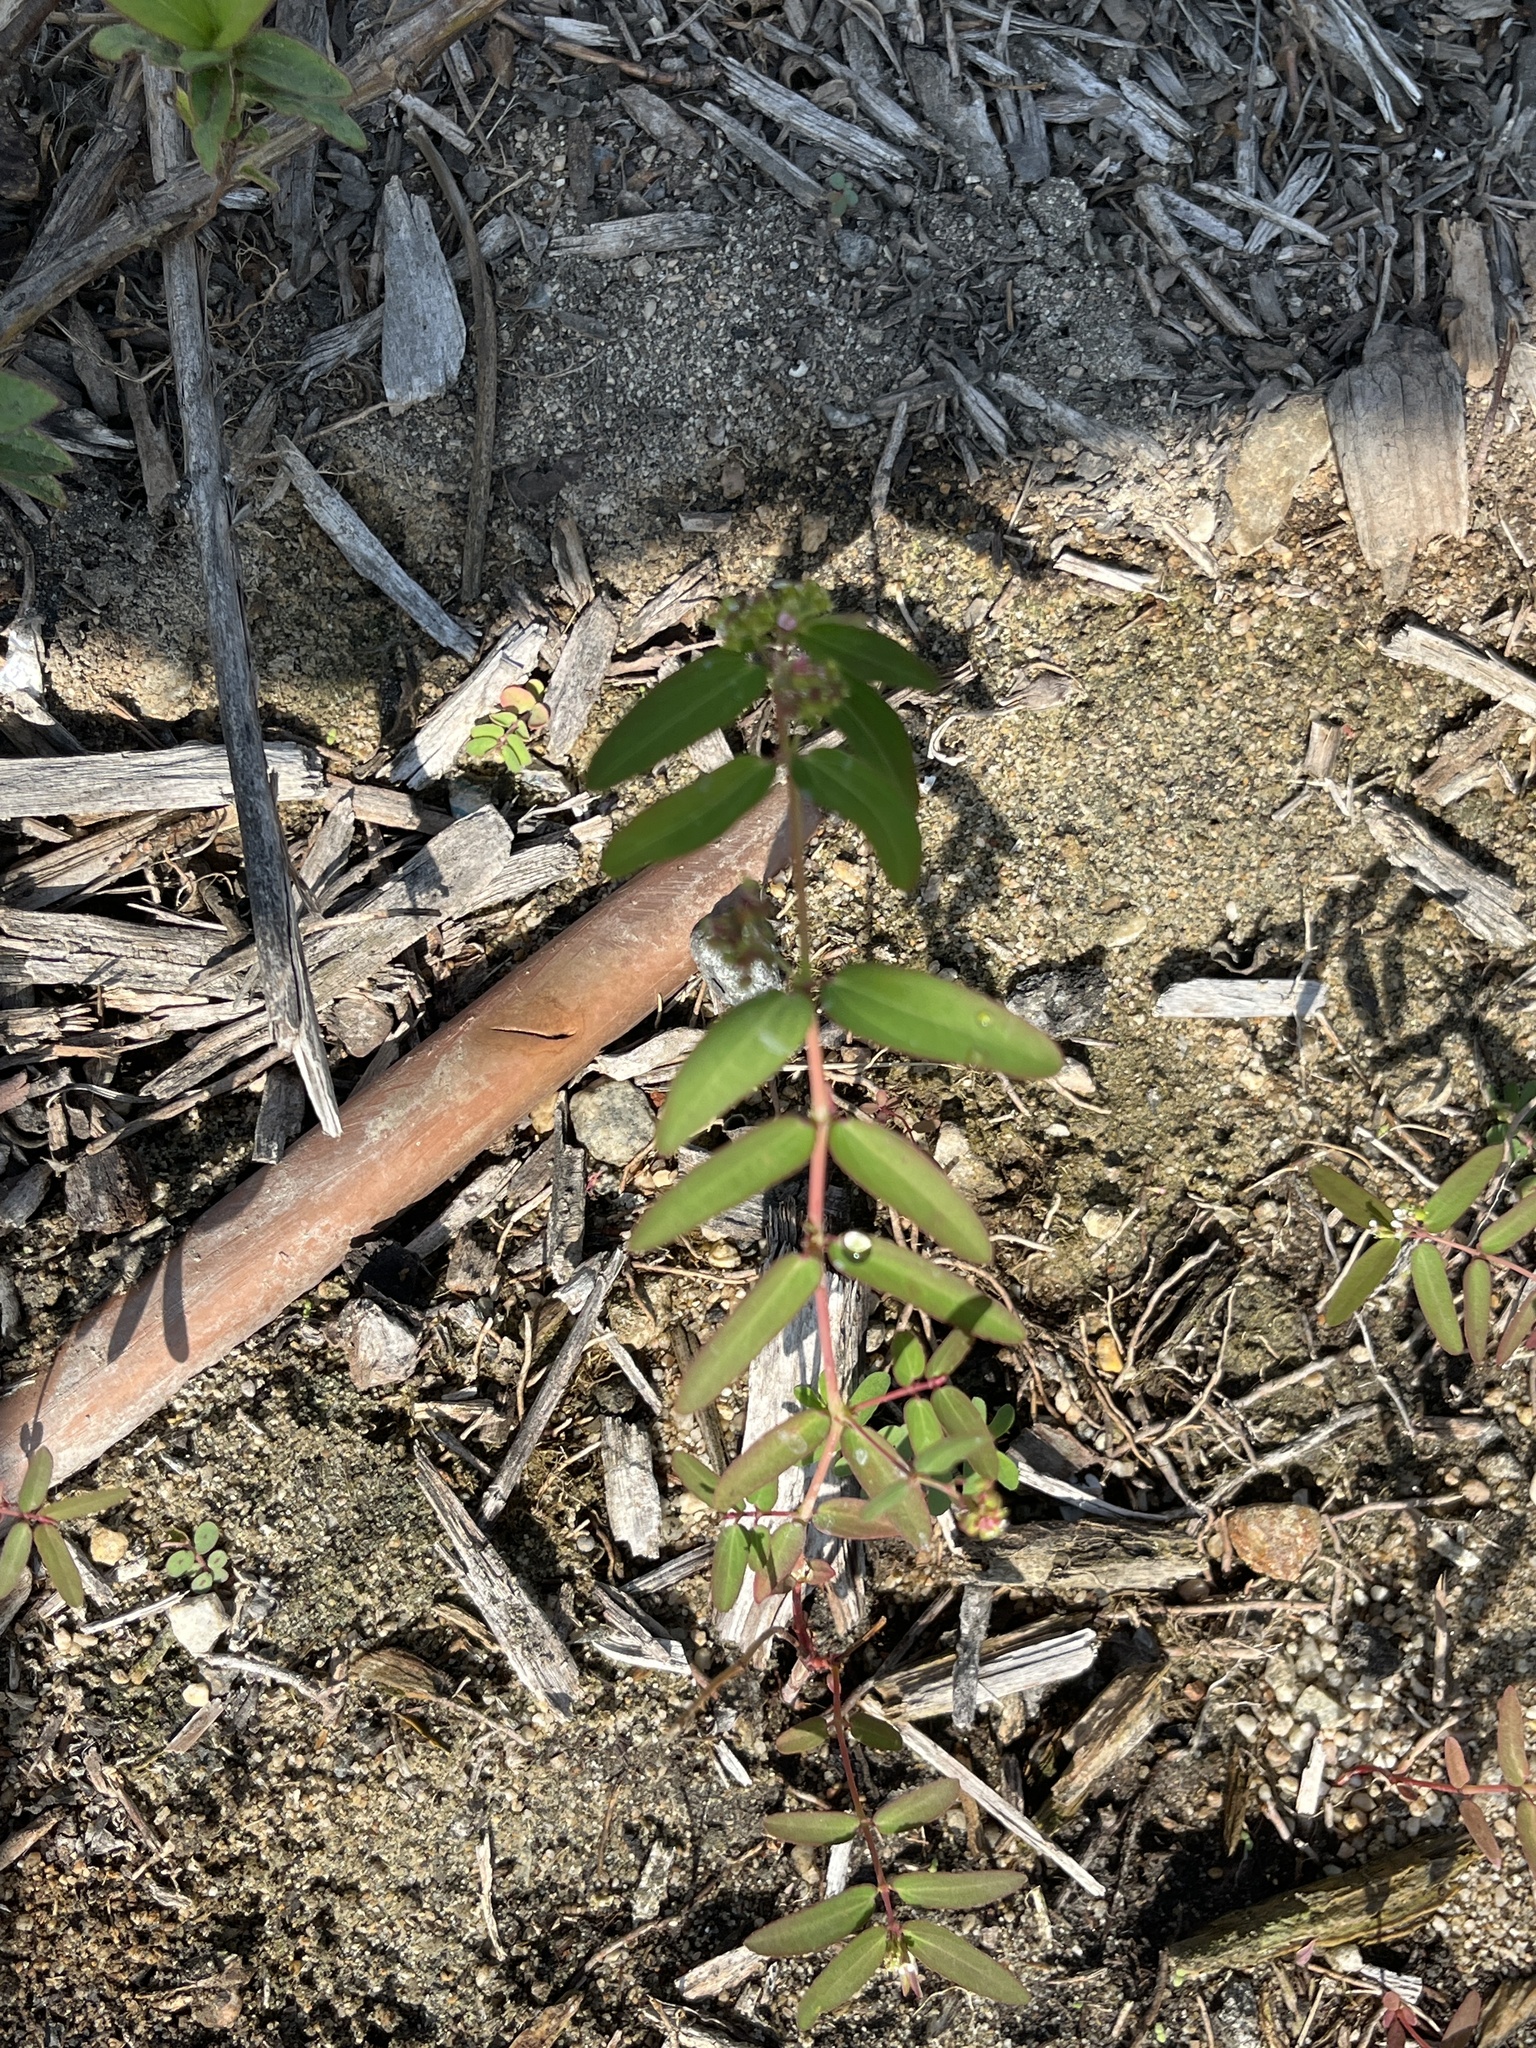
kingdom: Plantae
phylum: Tracheophyta
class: Magnoliopsida
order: Malpighiales
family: Euphorbiaceae
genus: Euphorbia
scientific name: Euphorbia hypericifolia
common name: Graceful sandmat
